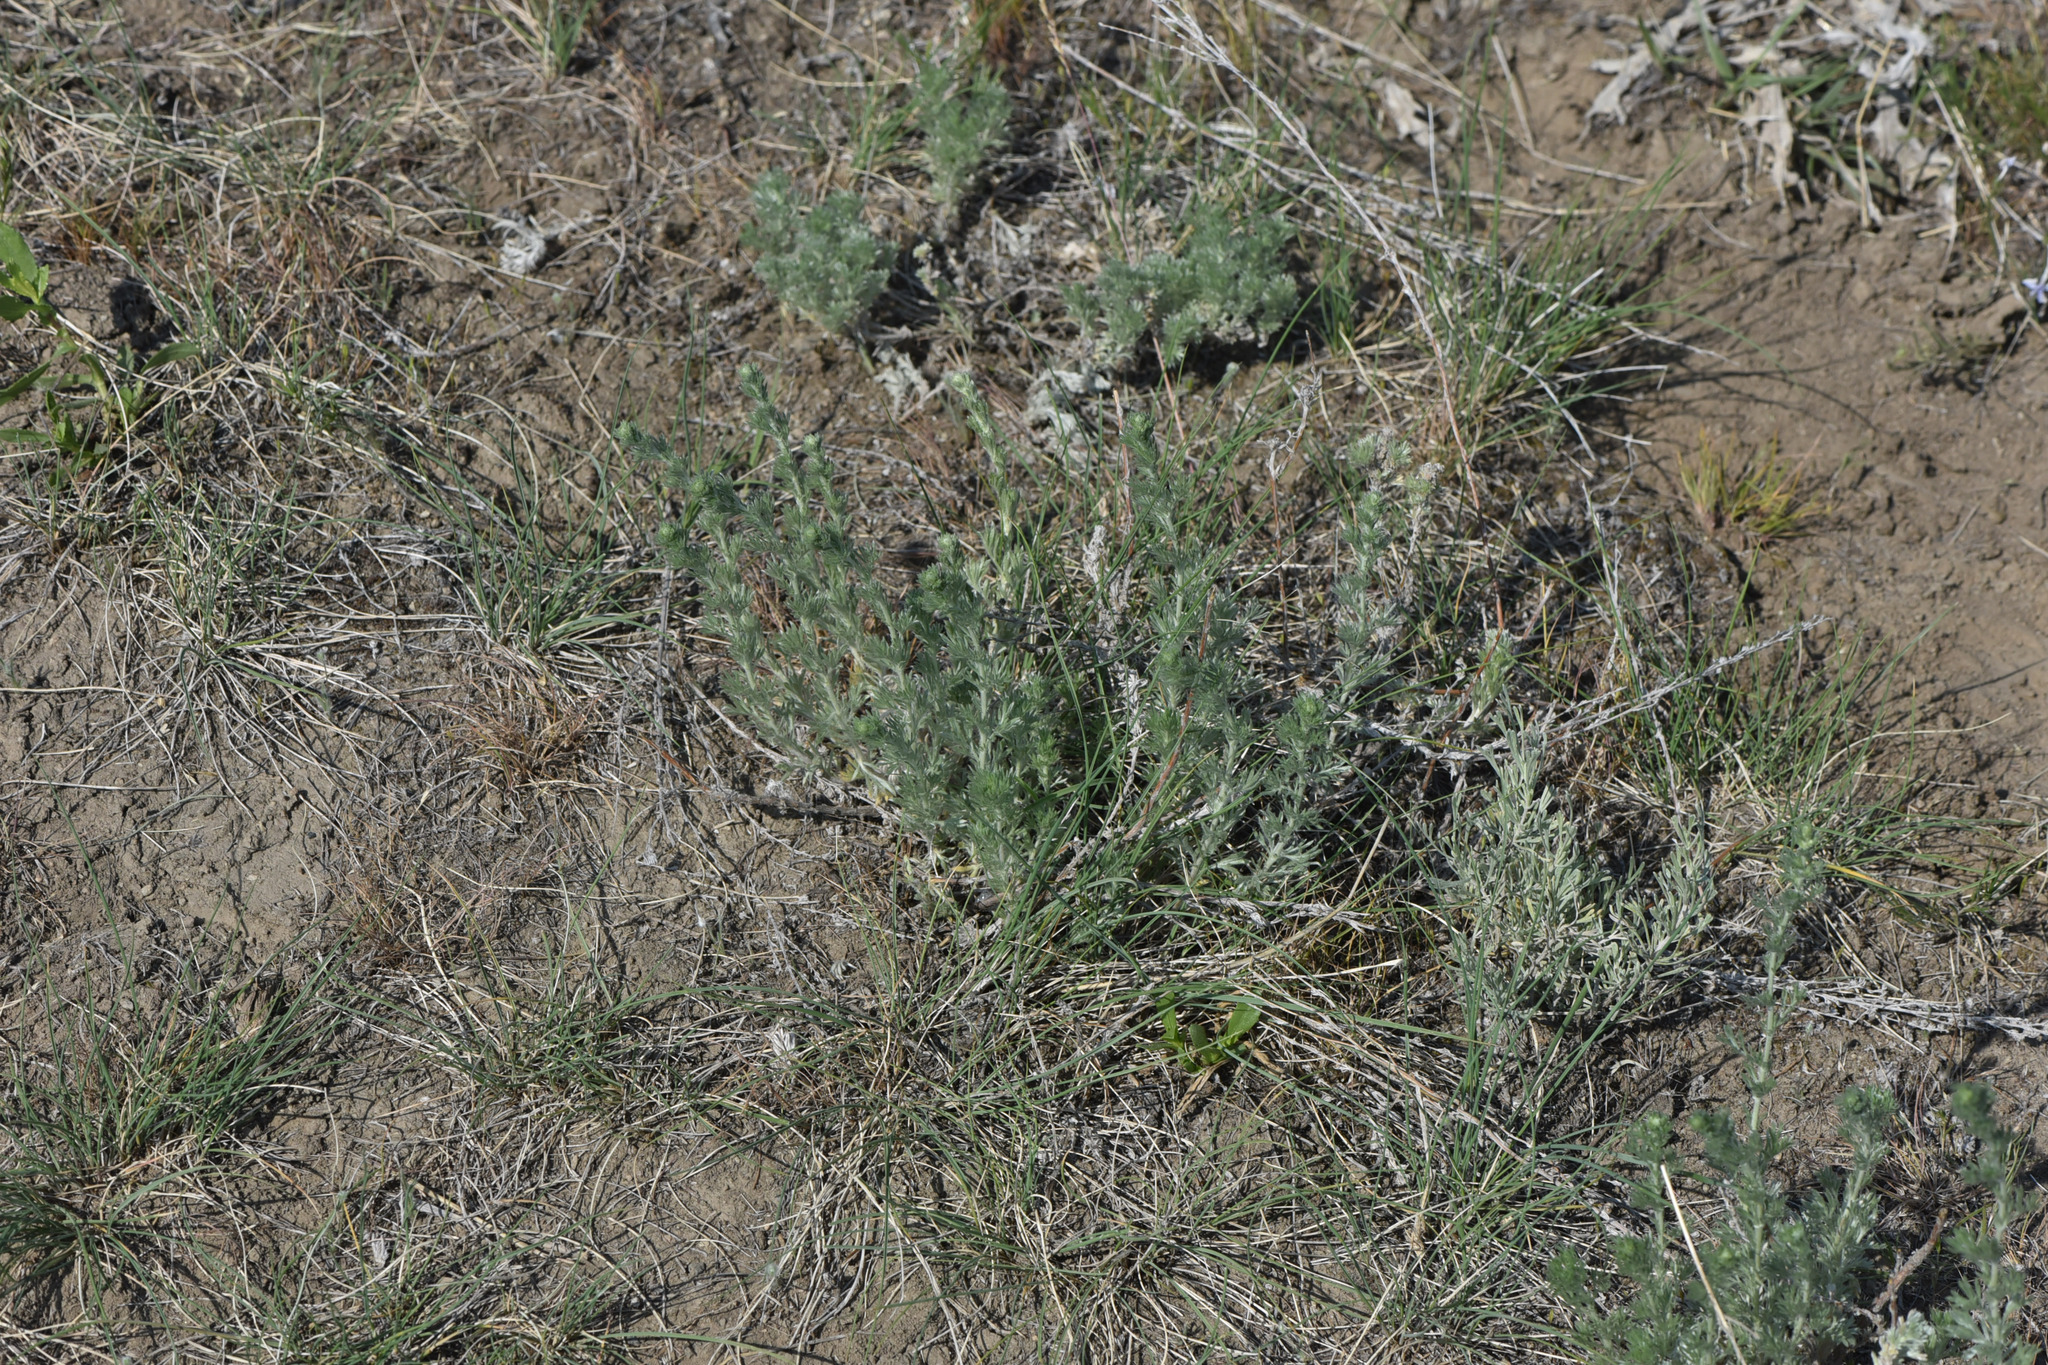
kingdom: Plantae
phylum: Tracheophyta
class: Magnoliopsida
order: Asterales
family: Asteraceae
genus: Artemisia
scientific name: Artemisia frigida
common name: Prairie sagewort
